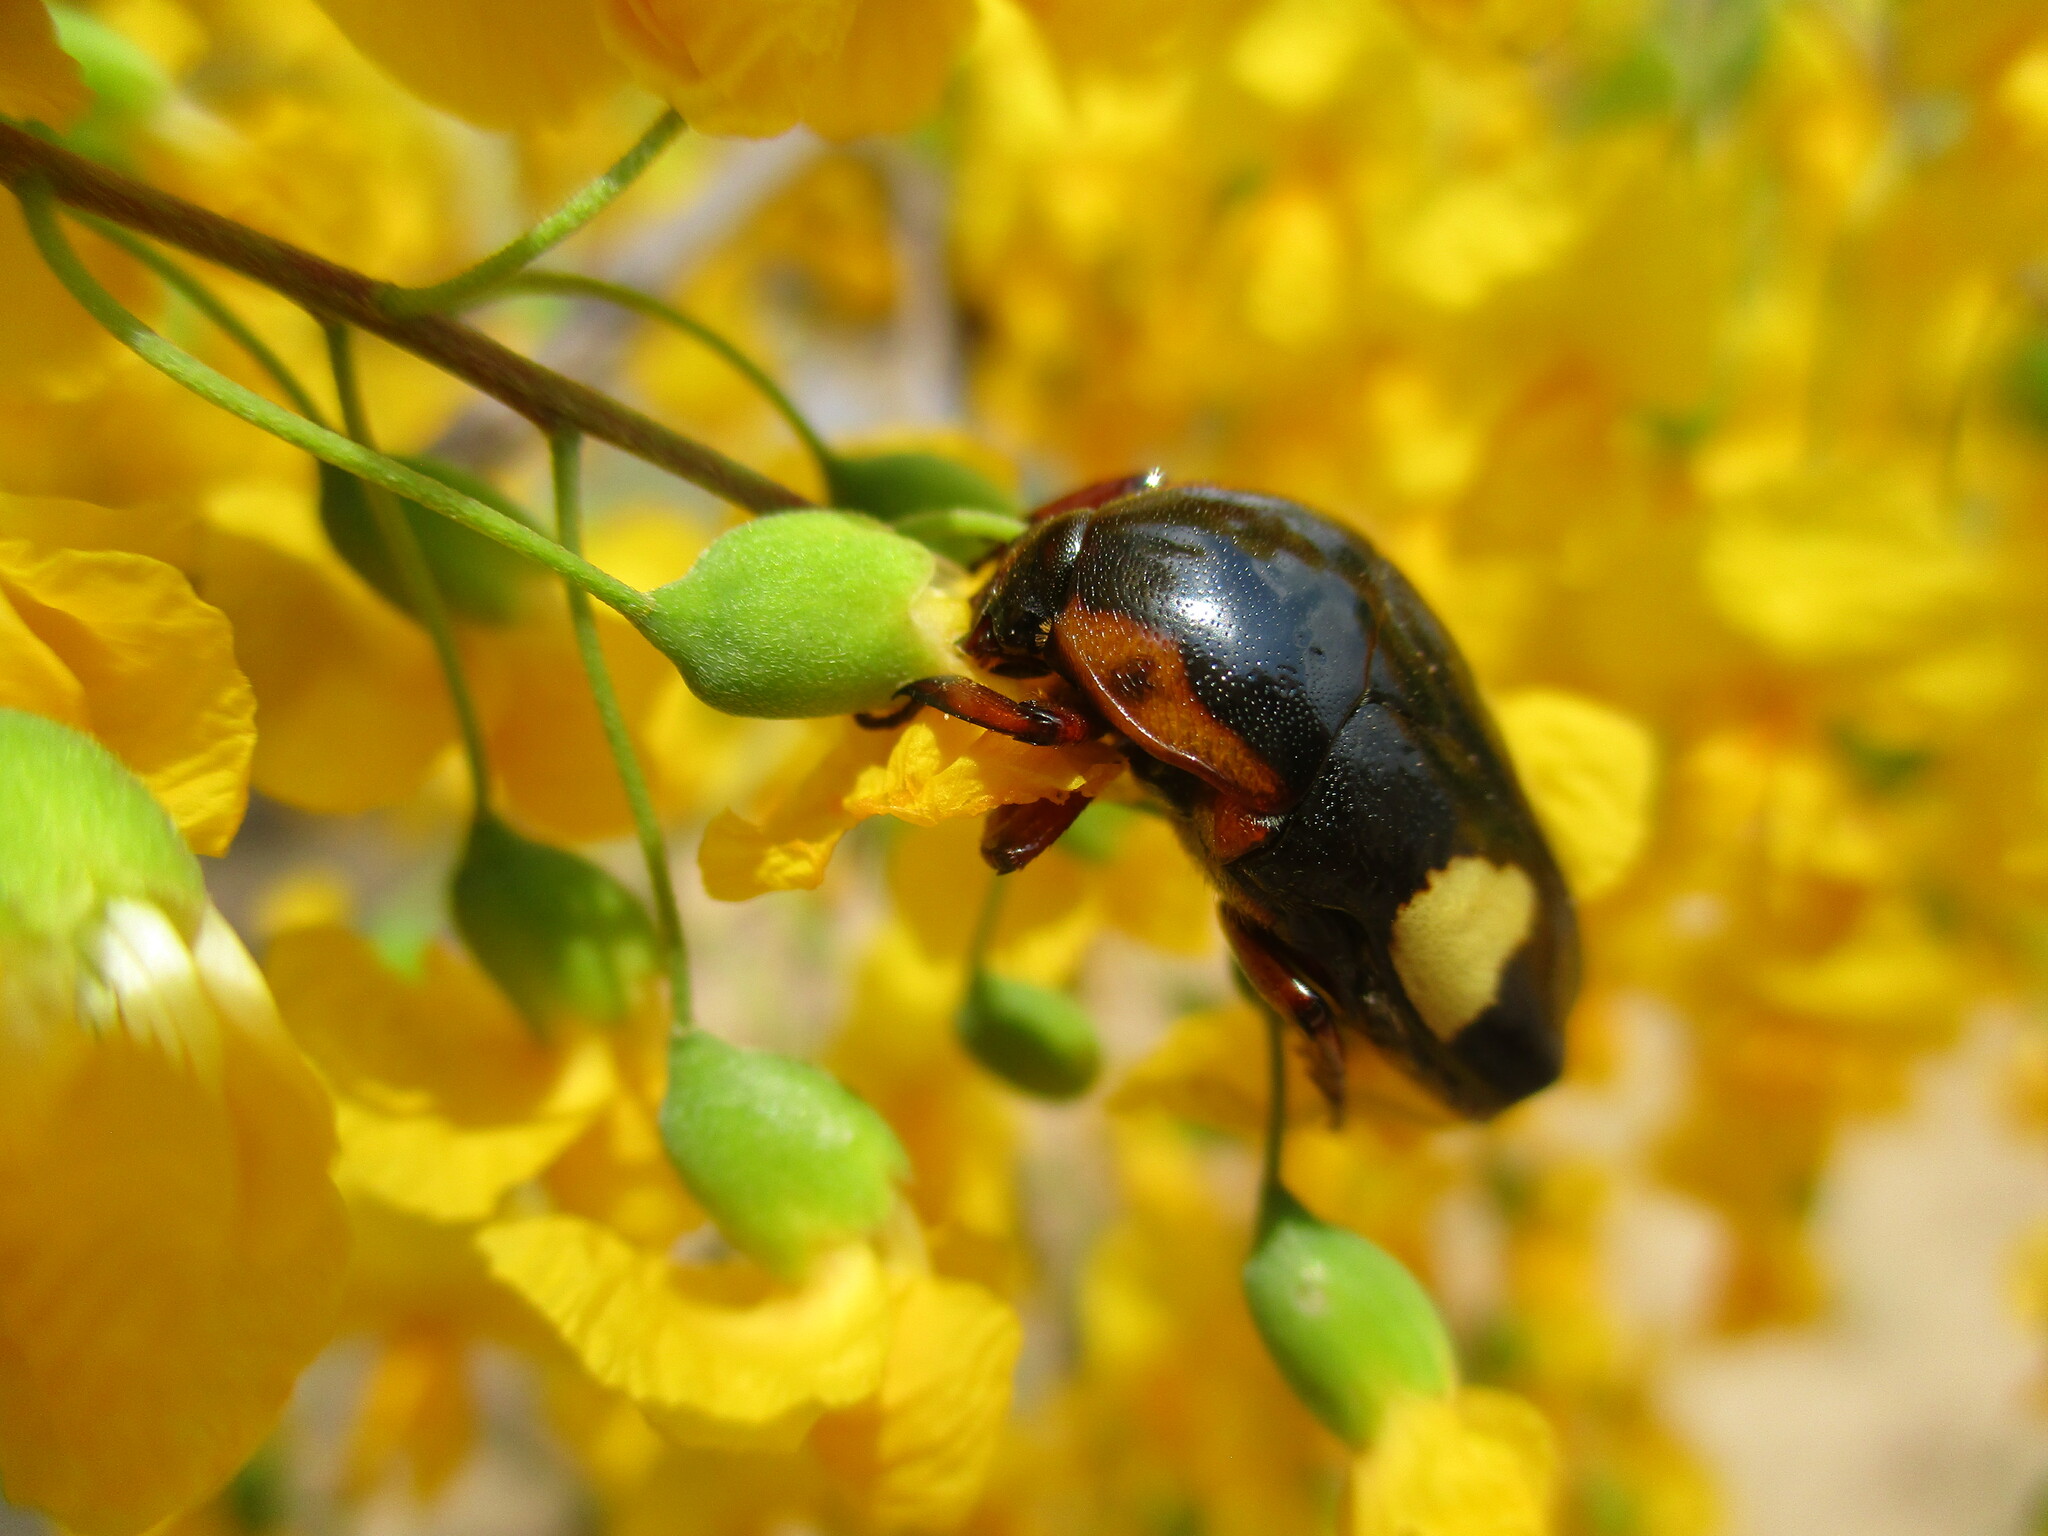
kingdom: Animalia
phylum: Arthropoda
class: Insecta
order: Coleoptera
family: Scarabaeidae
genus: Pedinorrhina
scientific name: Pedinorrhina
